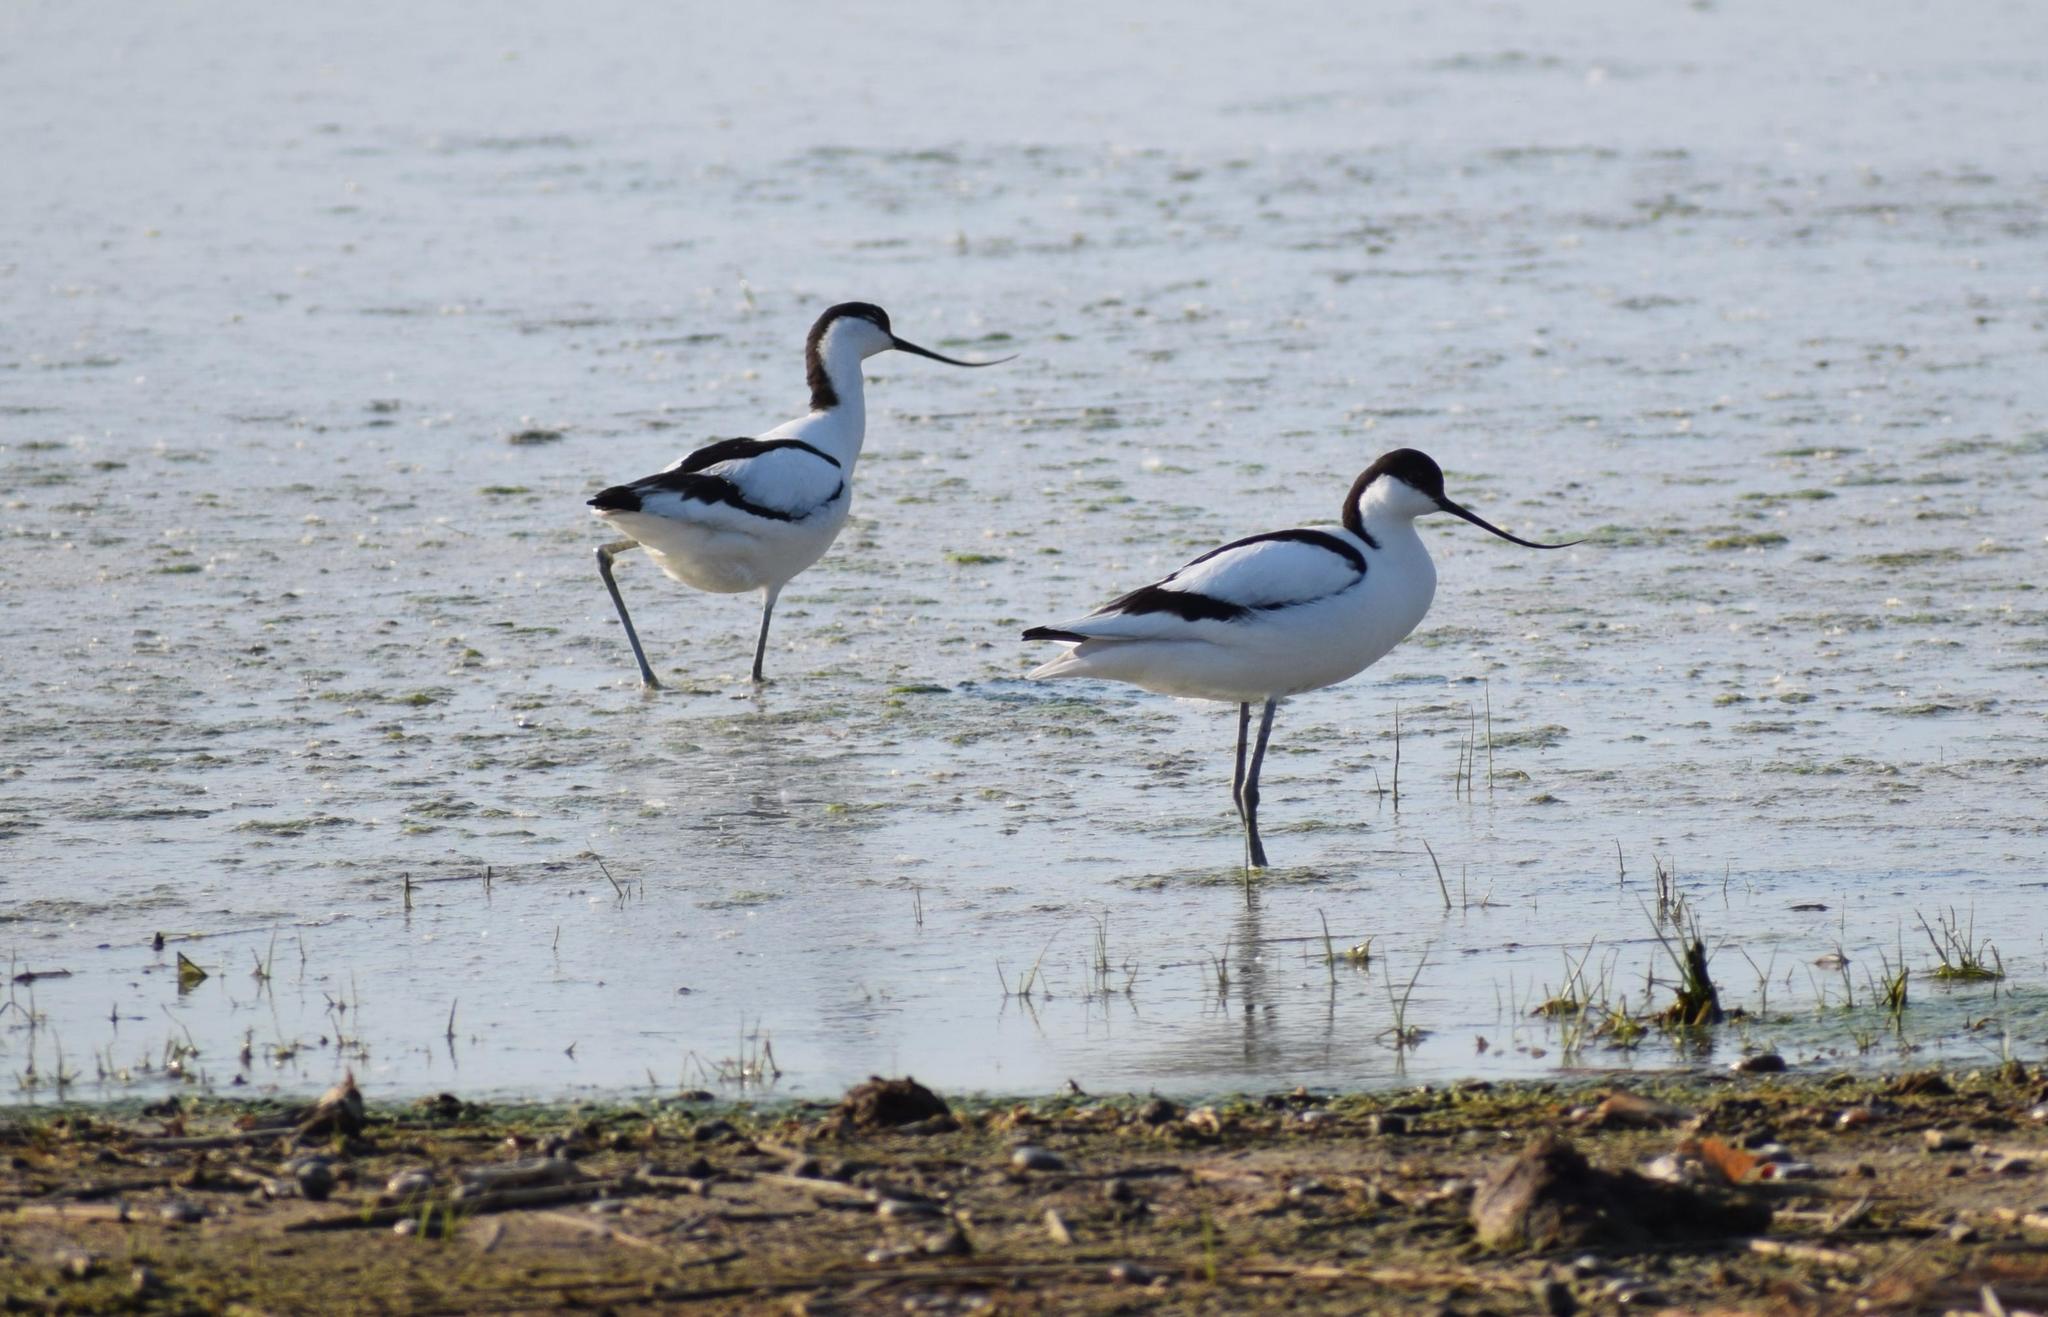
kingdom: Animalia
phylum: Chordata
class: Aves
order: Charadriiformes
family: Recurvirostridae
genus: Recurvirostra
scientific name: Recurvirostra avosetta
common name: Pied avocet
